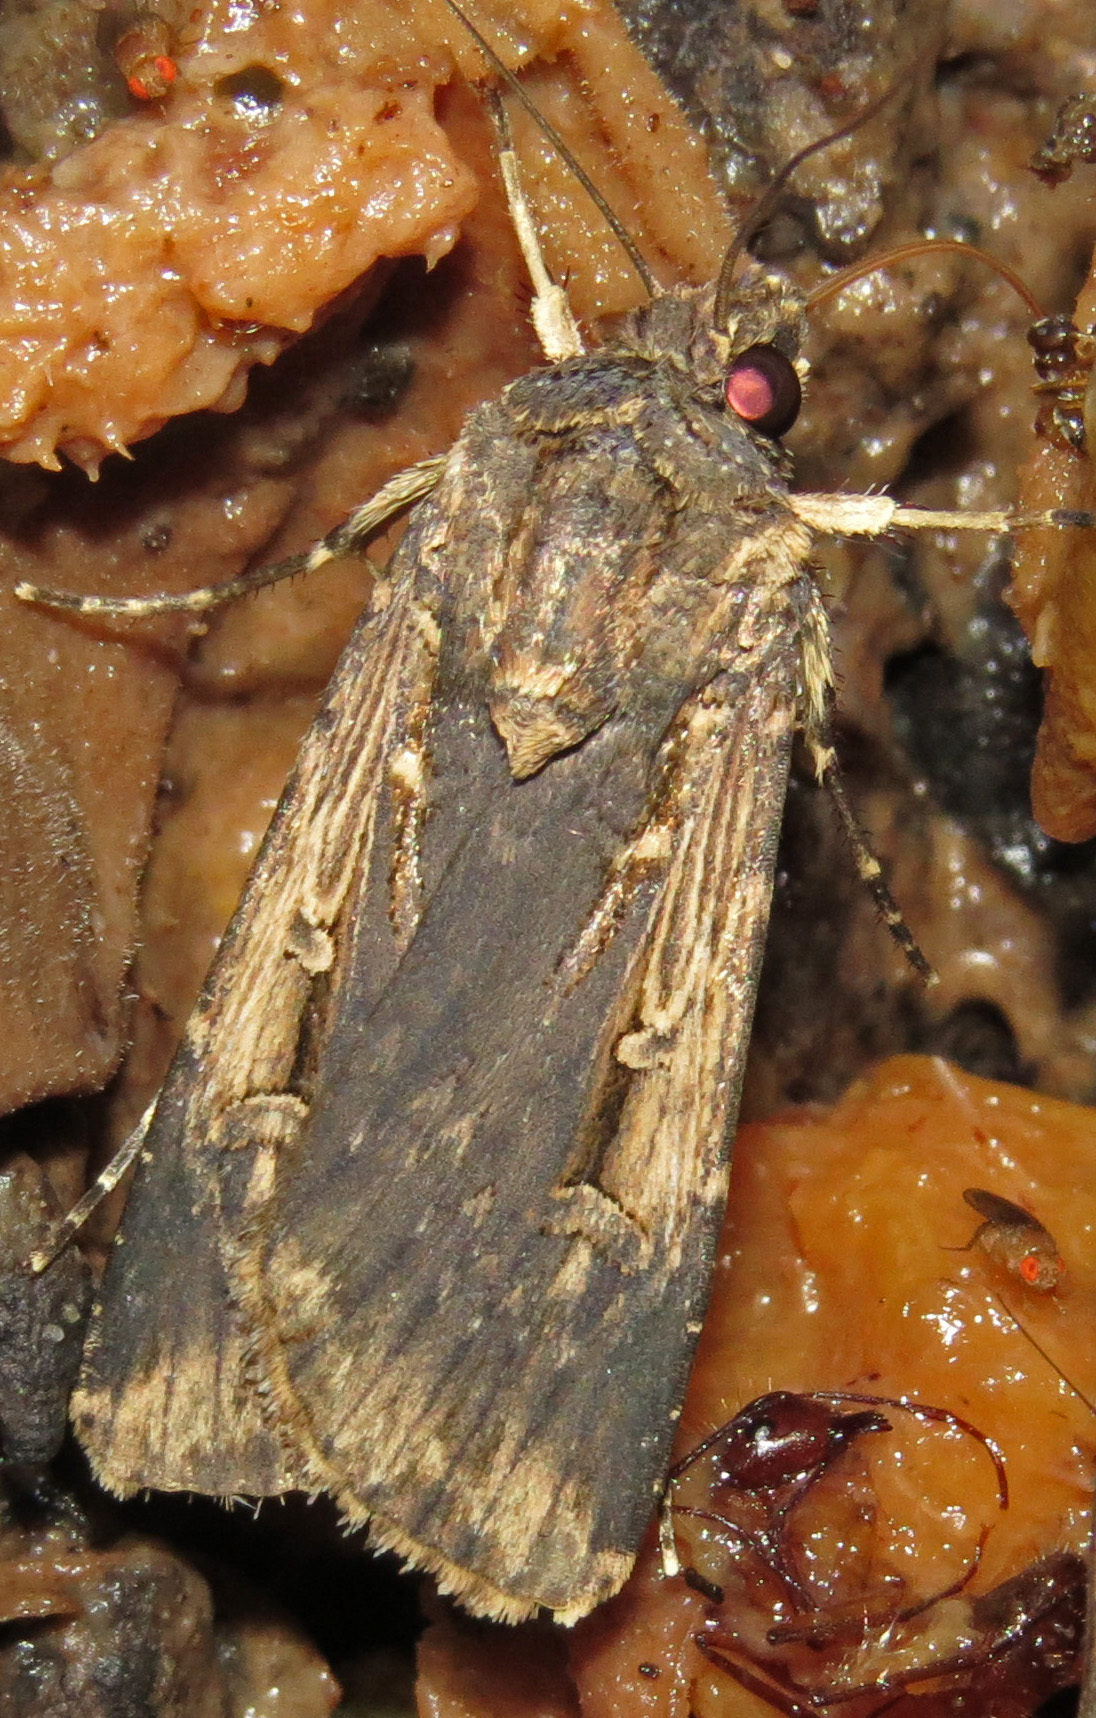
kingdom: Animalia
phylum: Arthropoda
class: Insecta
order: Lepidoptera
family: Noctuidae
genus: Feltia
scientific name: Feltia subterranea
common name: Granulate cutworm
